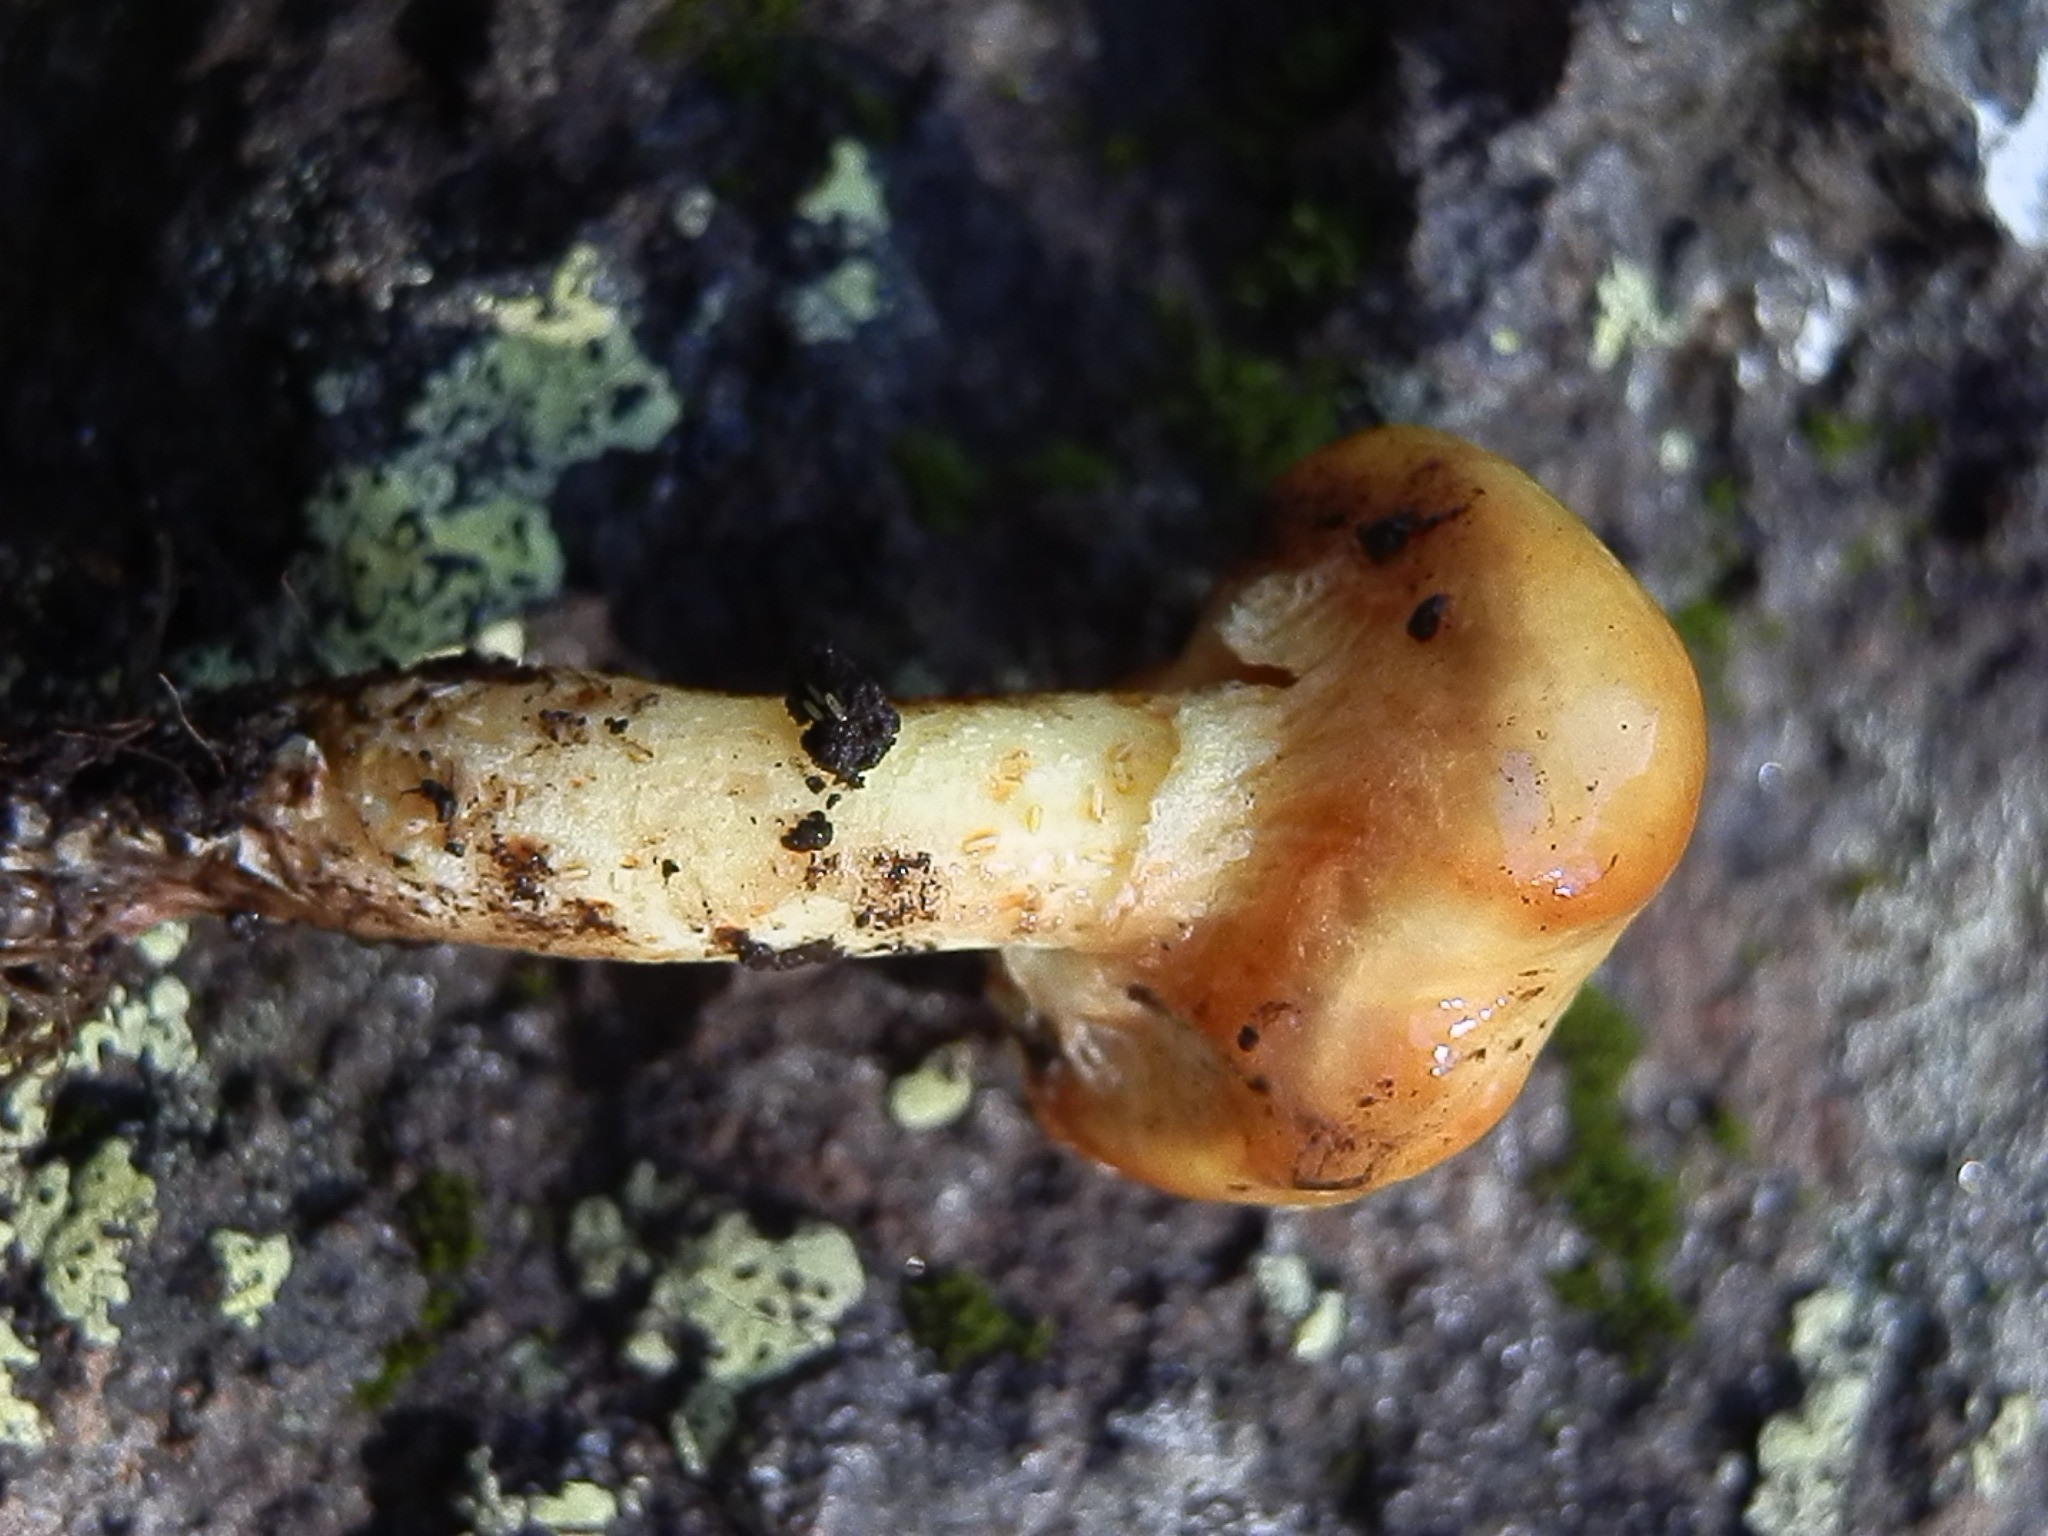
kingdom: Fungi
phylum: Basidiomycota
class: Agaricomycetes
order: Boletales
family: Suillaceae
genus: Suillus
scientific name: Suillus americanus
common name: Chicken fat mushroom
